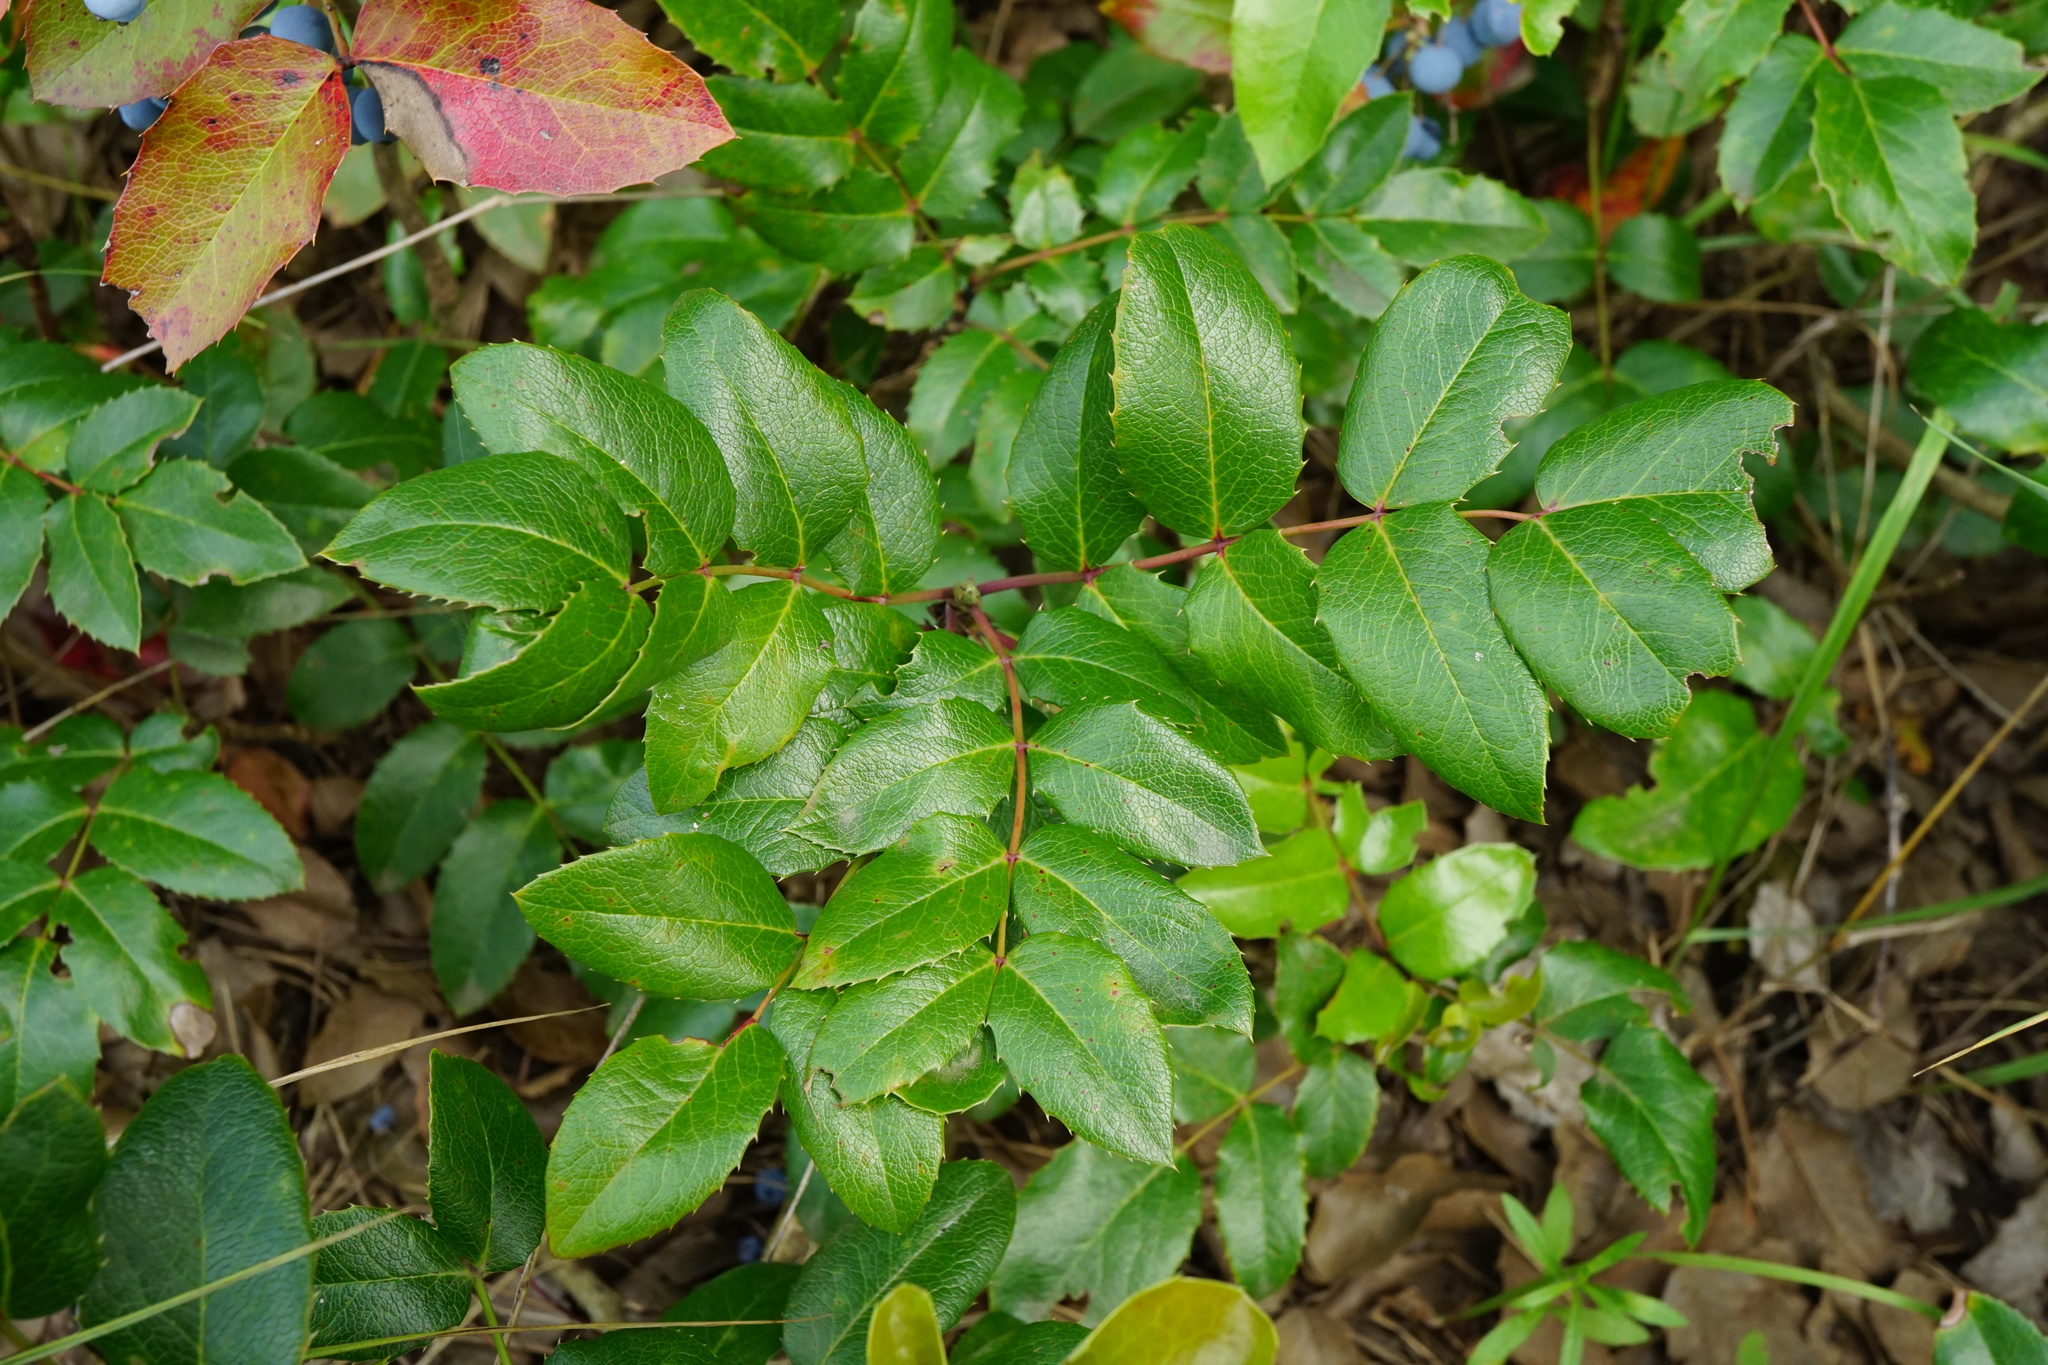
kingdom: Plantae
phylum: Tracheophyta
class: Magnoliopsida
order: Ranunculales
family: Berberidaceae
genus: Mahonia
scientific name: Mahonia aquifolium
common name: Oregon-grape
